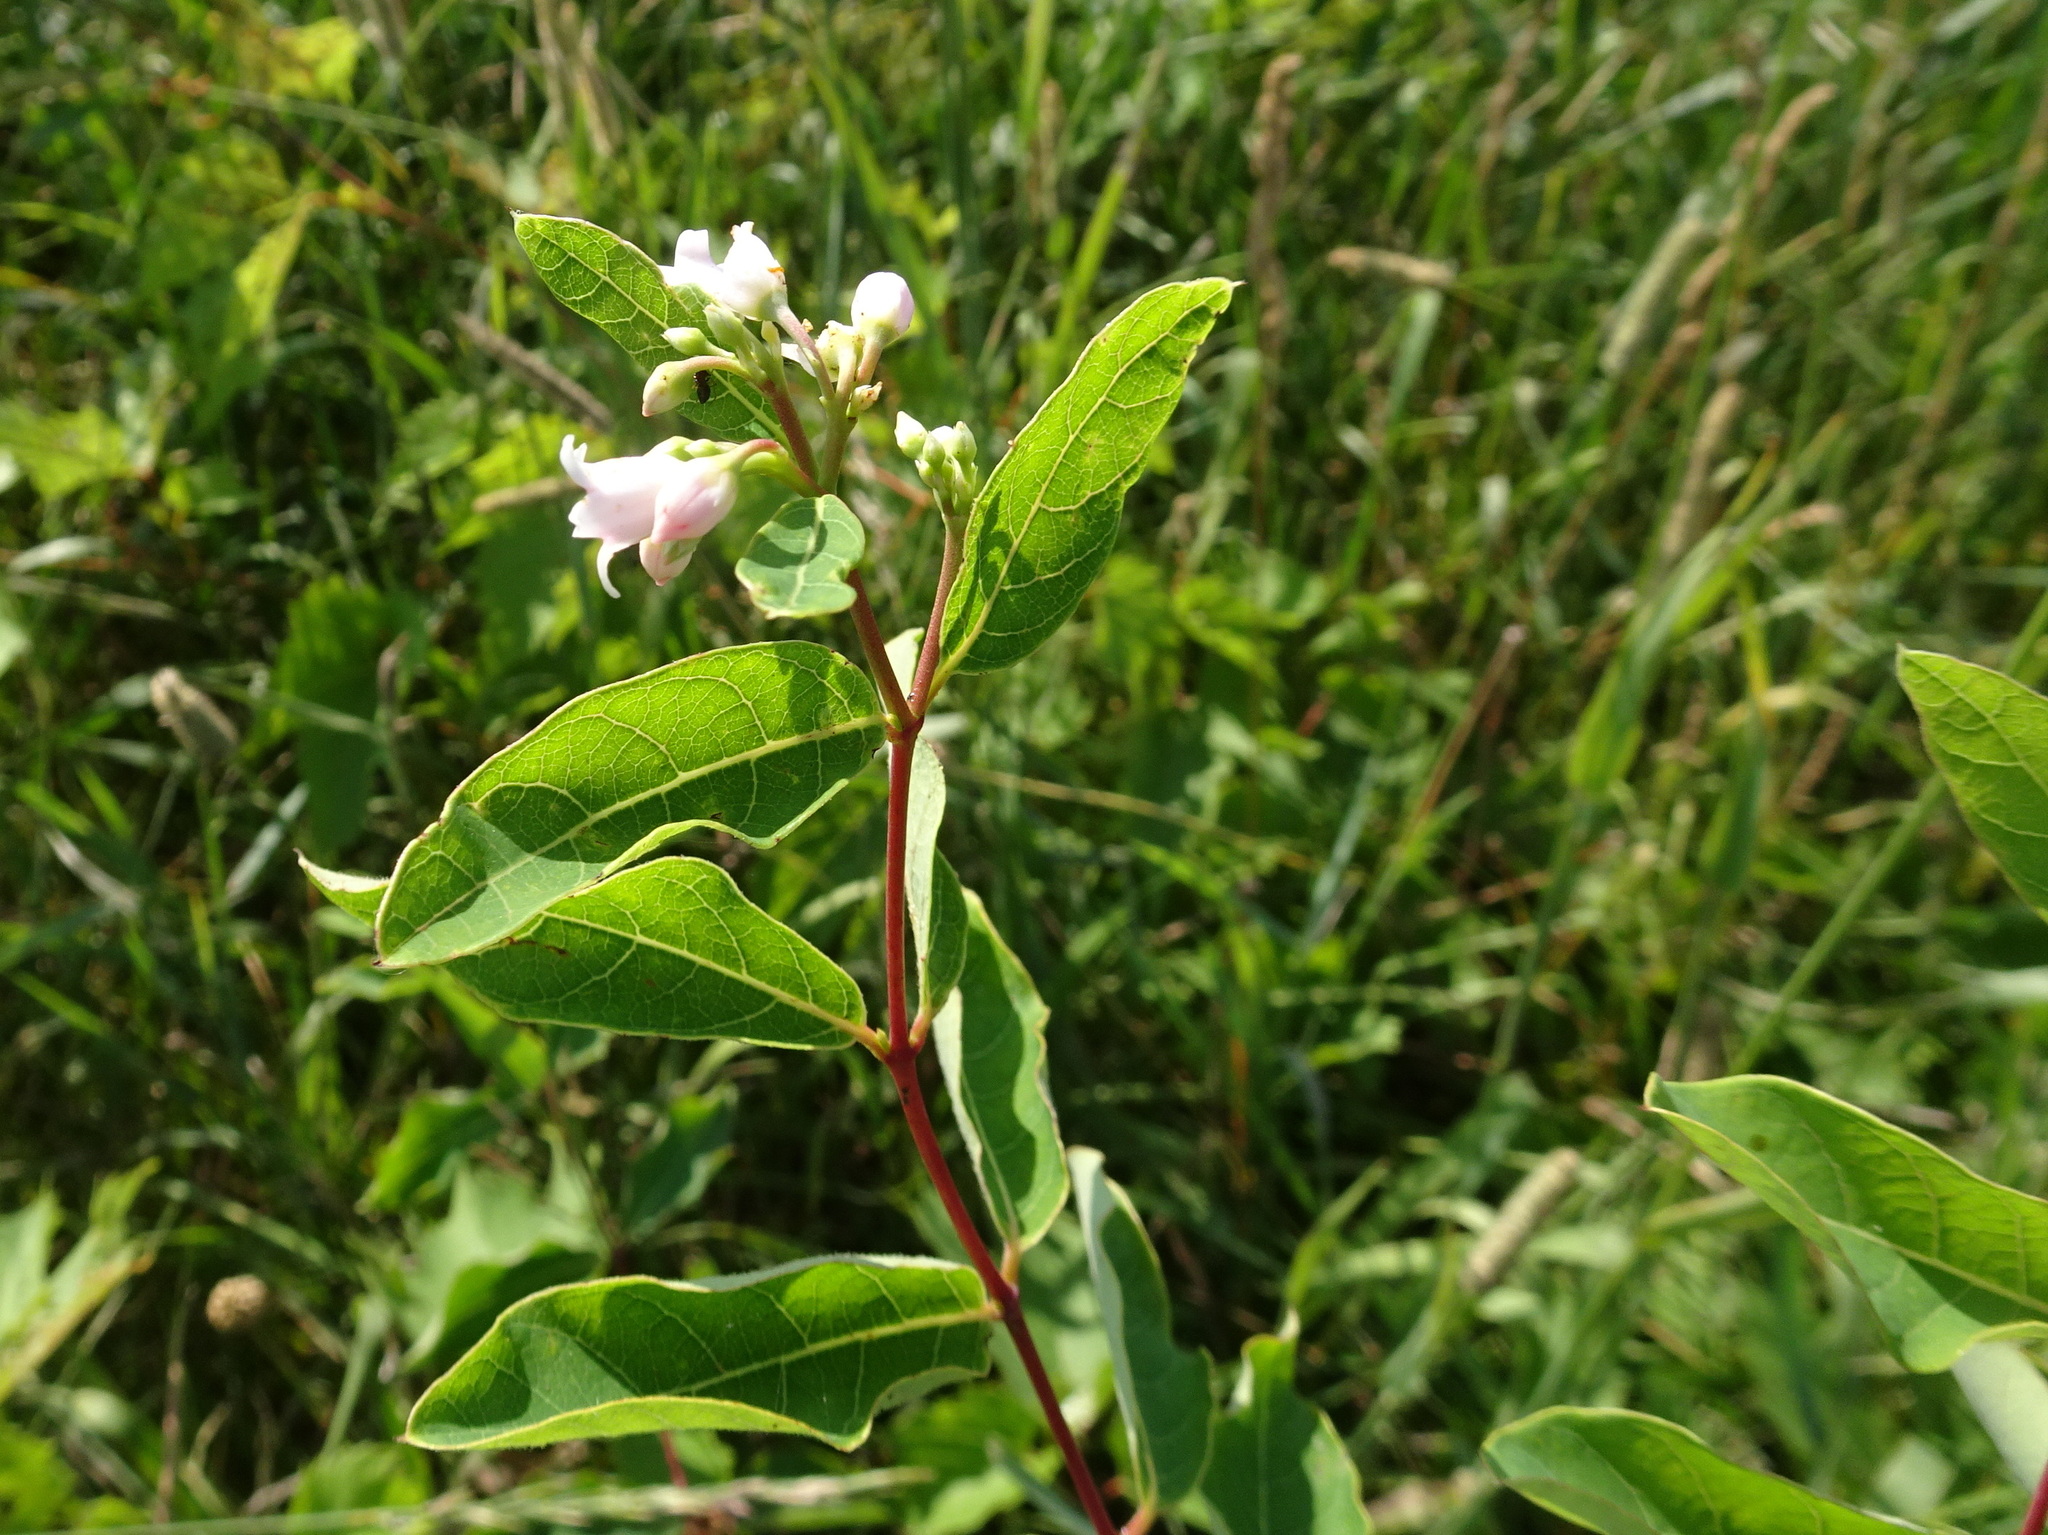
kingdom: Plantae
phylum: Tracheophyta
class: Magnoliopsida
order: Gentianales
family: Apocynaceae
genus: Apocynum
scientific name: Apocynum androsaemifolium
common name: Spreading dogbane
